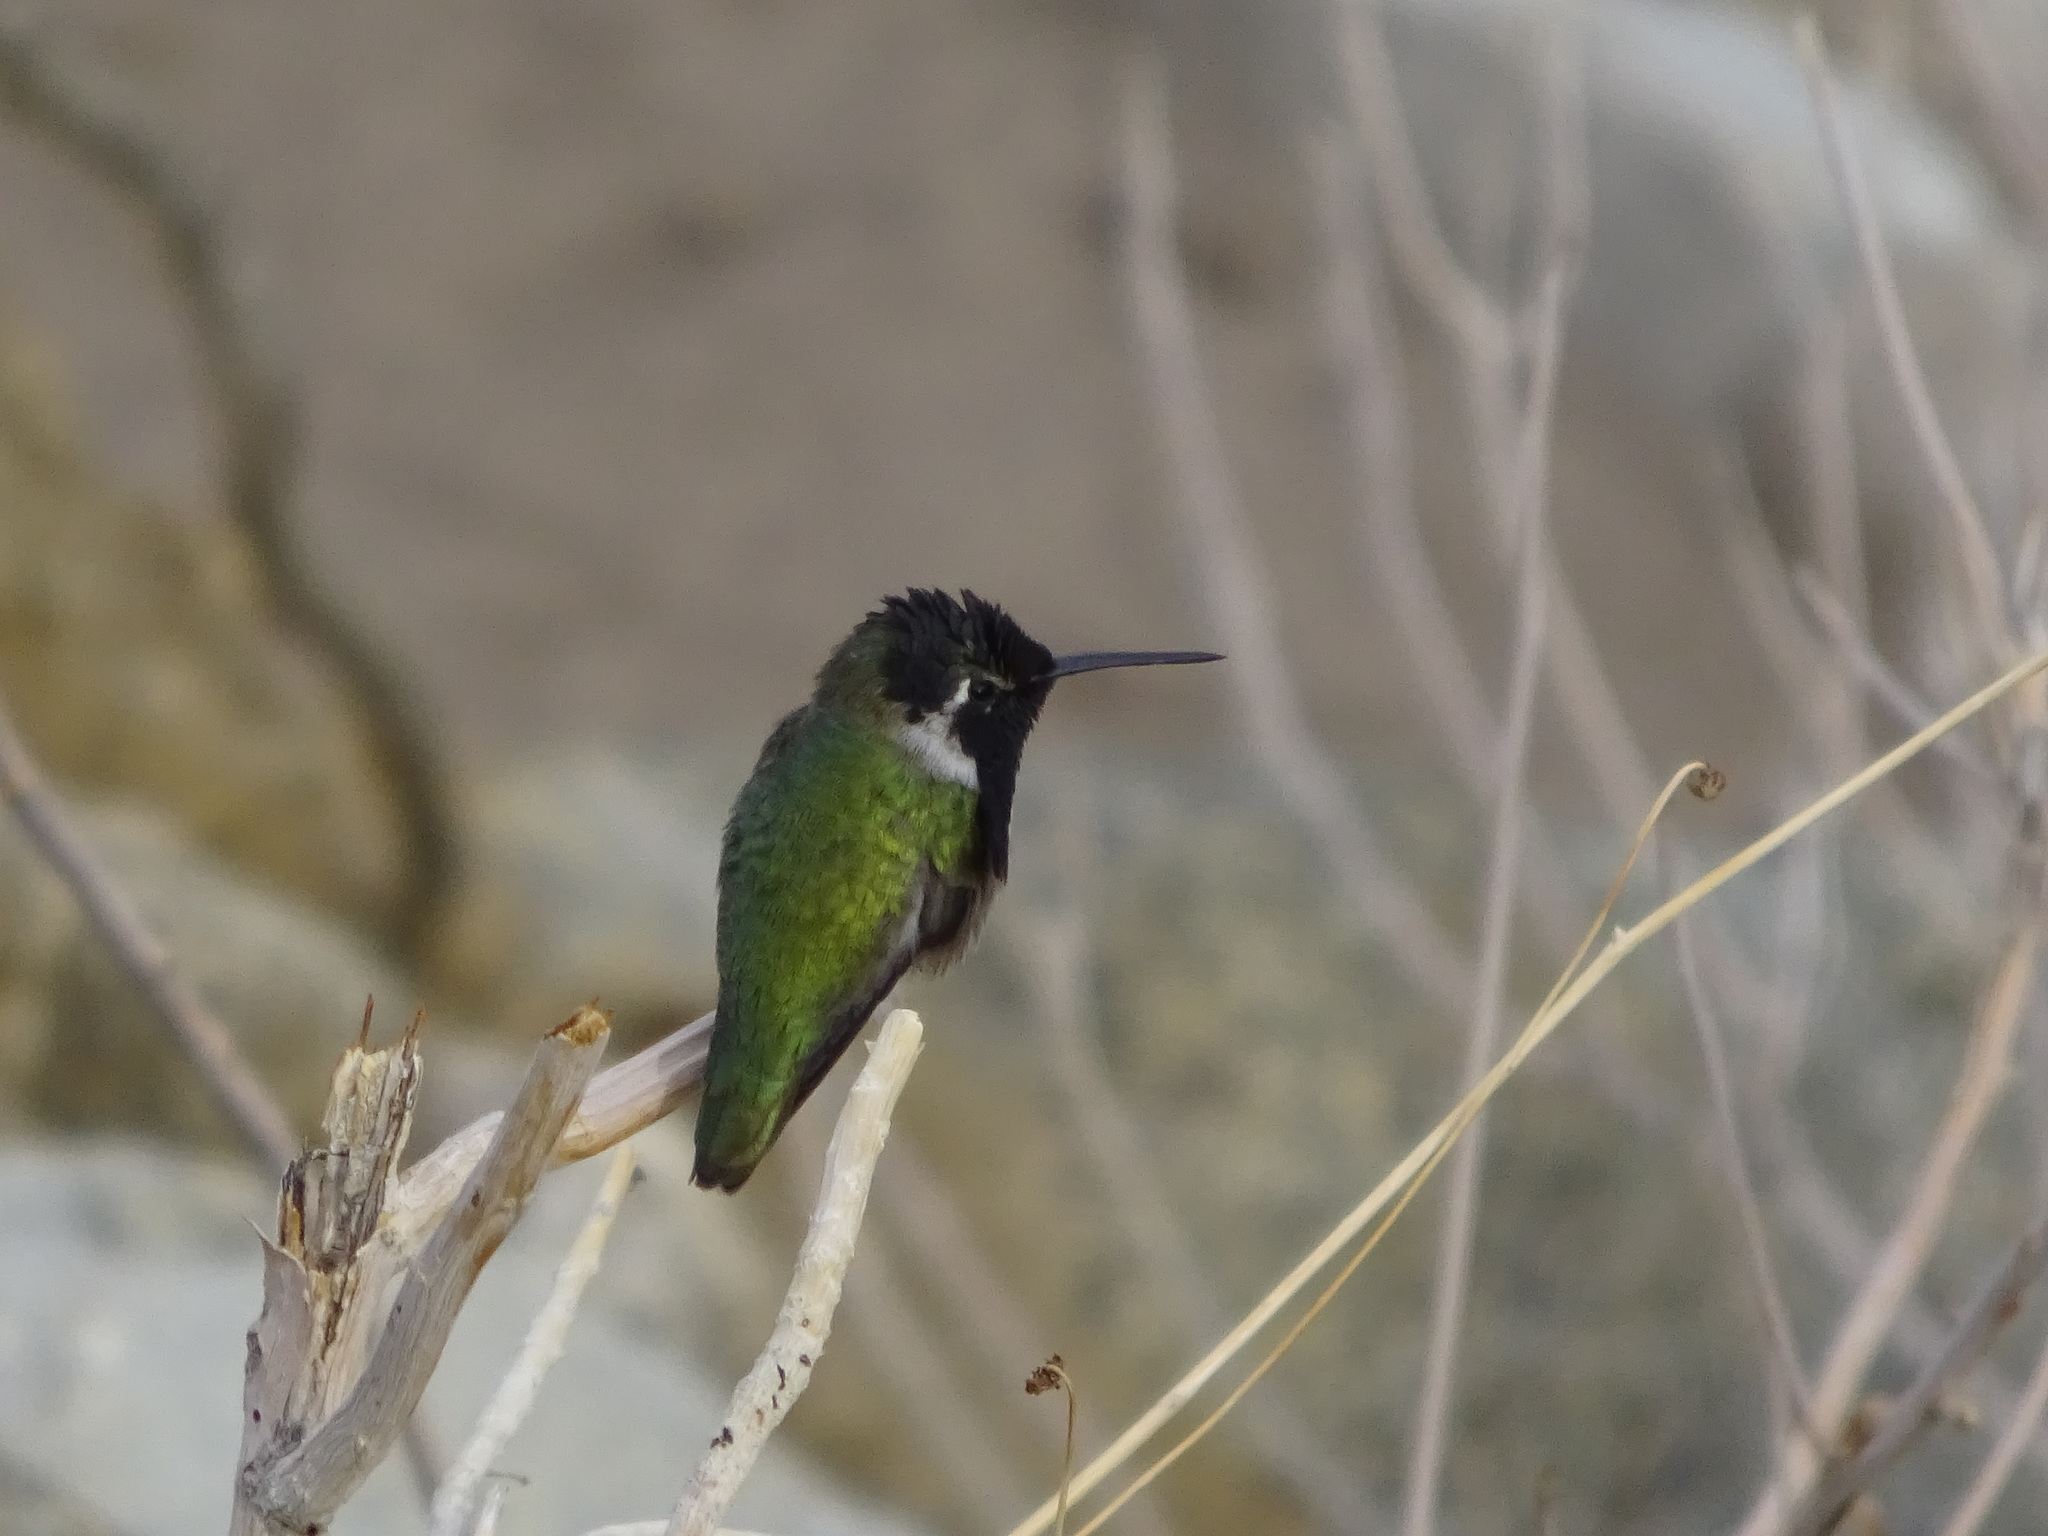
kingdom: Animalia
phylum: Chordata
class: Aves
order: Apodiformes
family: Trochilidae
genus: Calypte
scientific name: Calypte costae
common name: Costa's hummingbird
